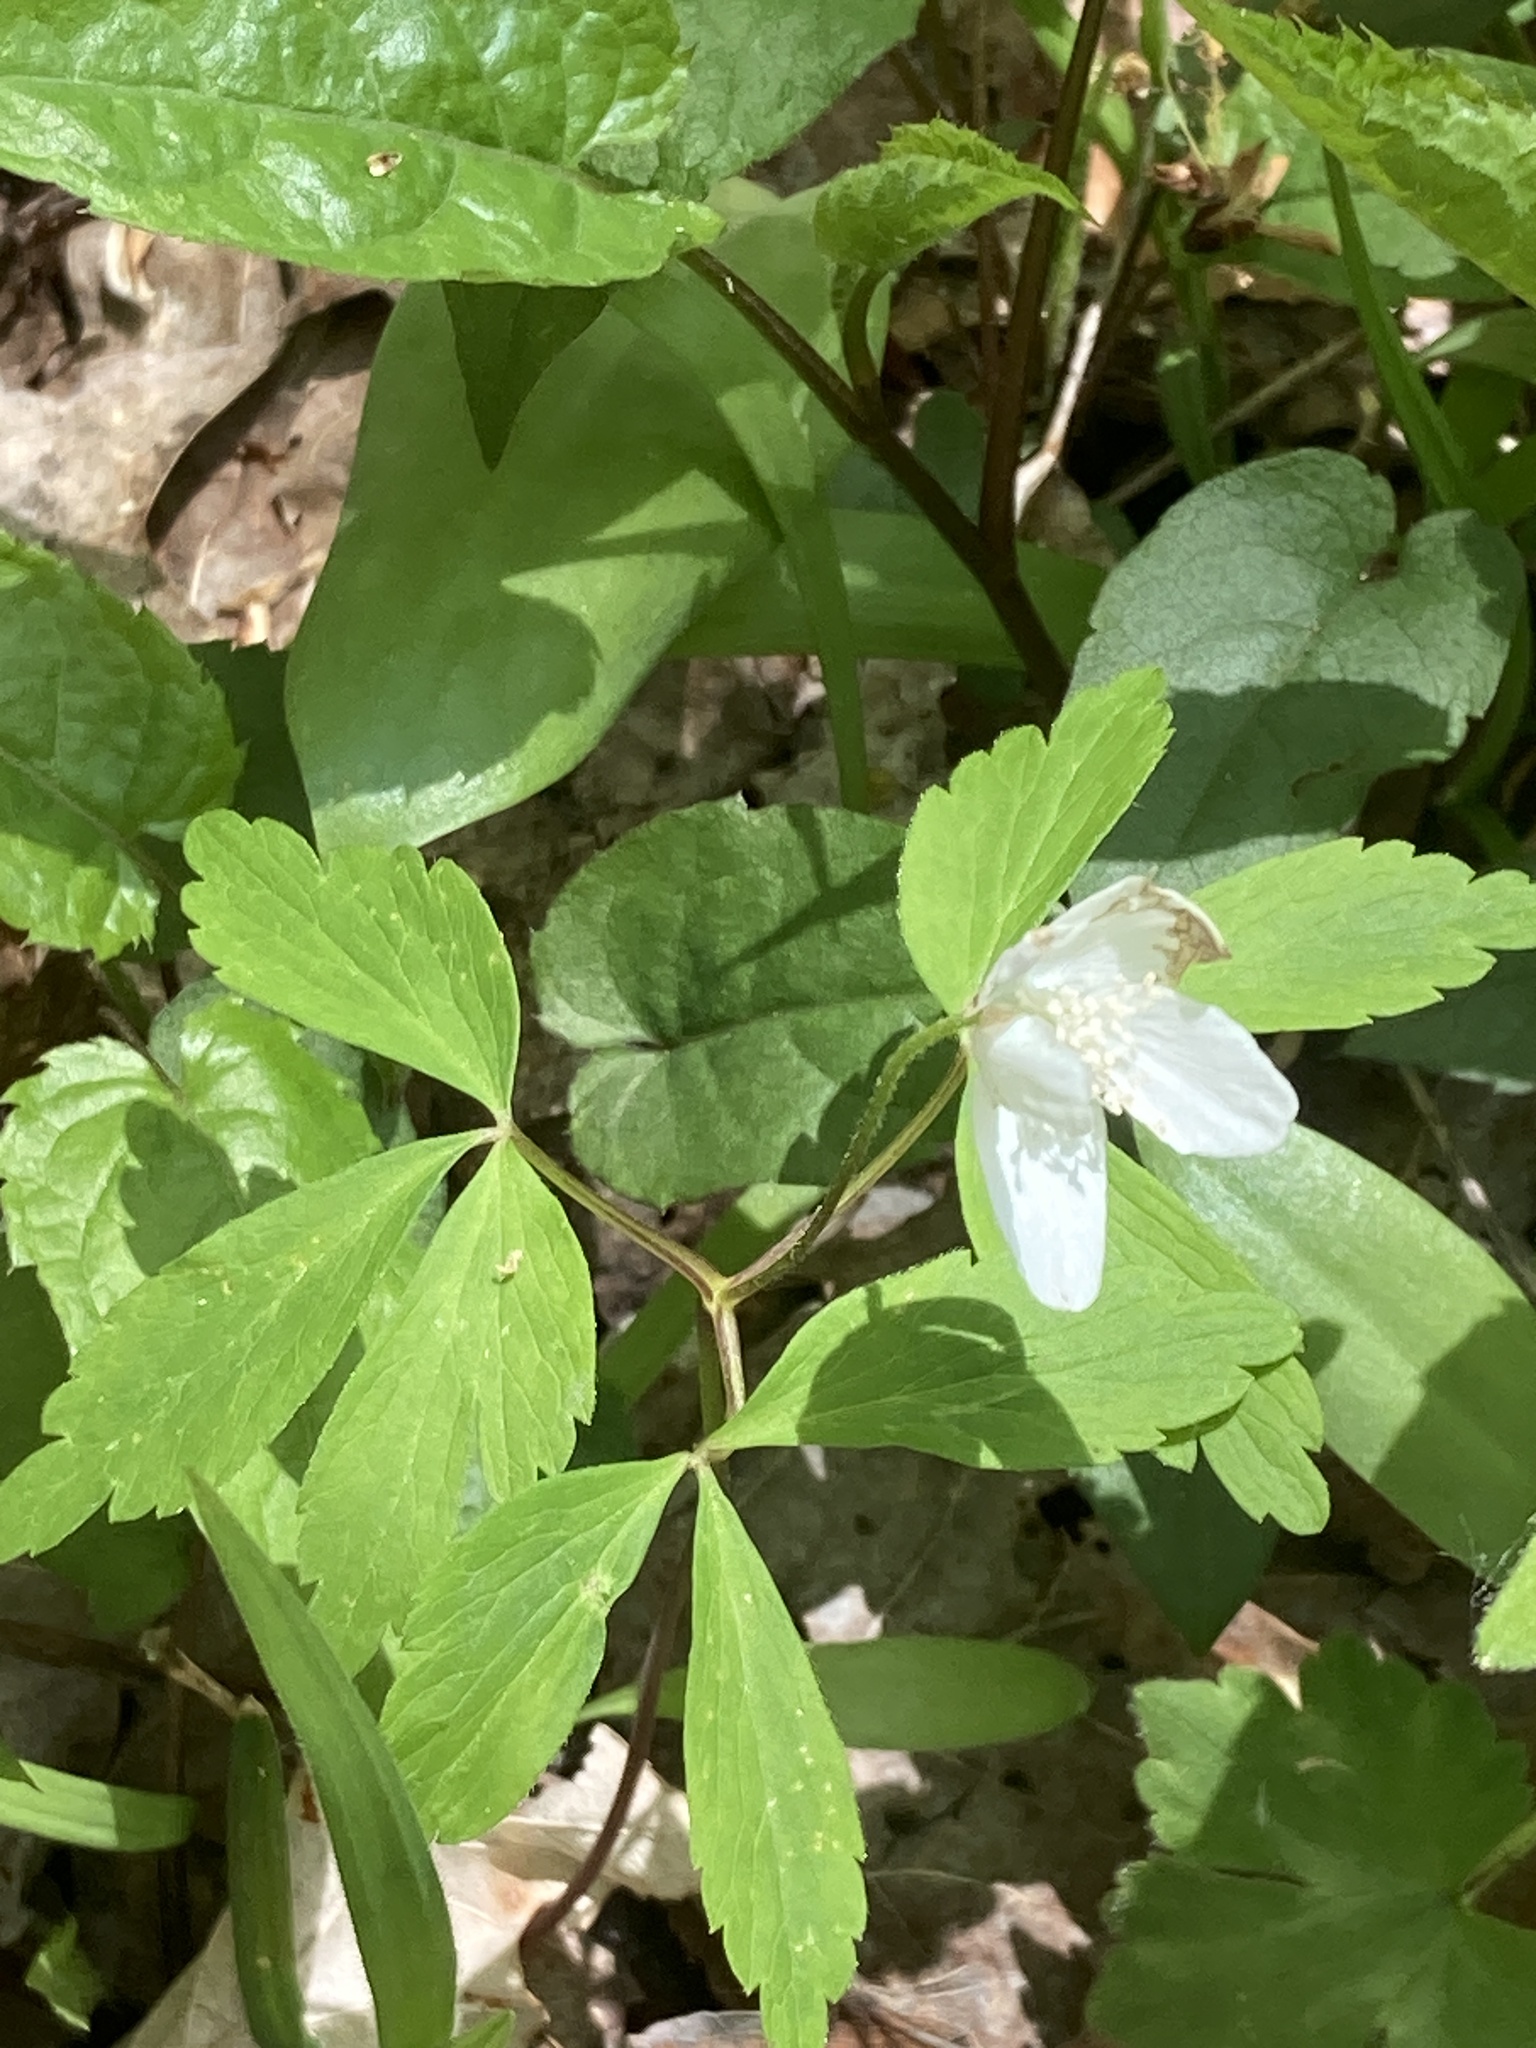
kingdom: Plantae
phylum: Tracheophyta
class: Magnoliopsida
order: Ranunculales
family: Ranunculaceae
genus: Anemone
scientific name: Anemone quinquefolia
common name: Wood anemone
